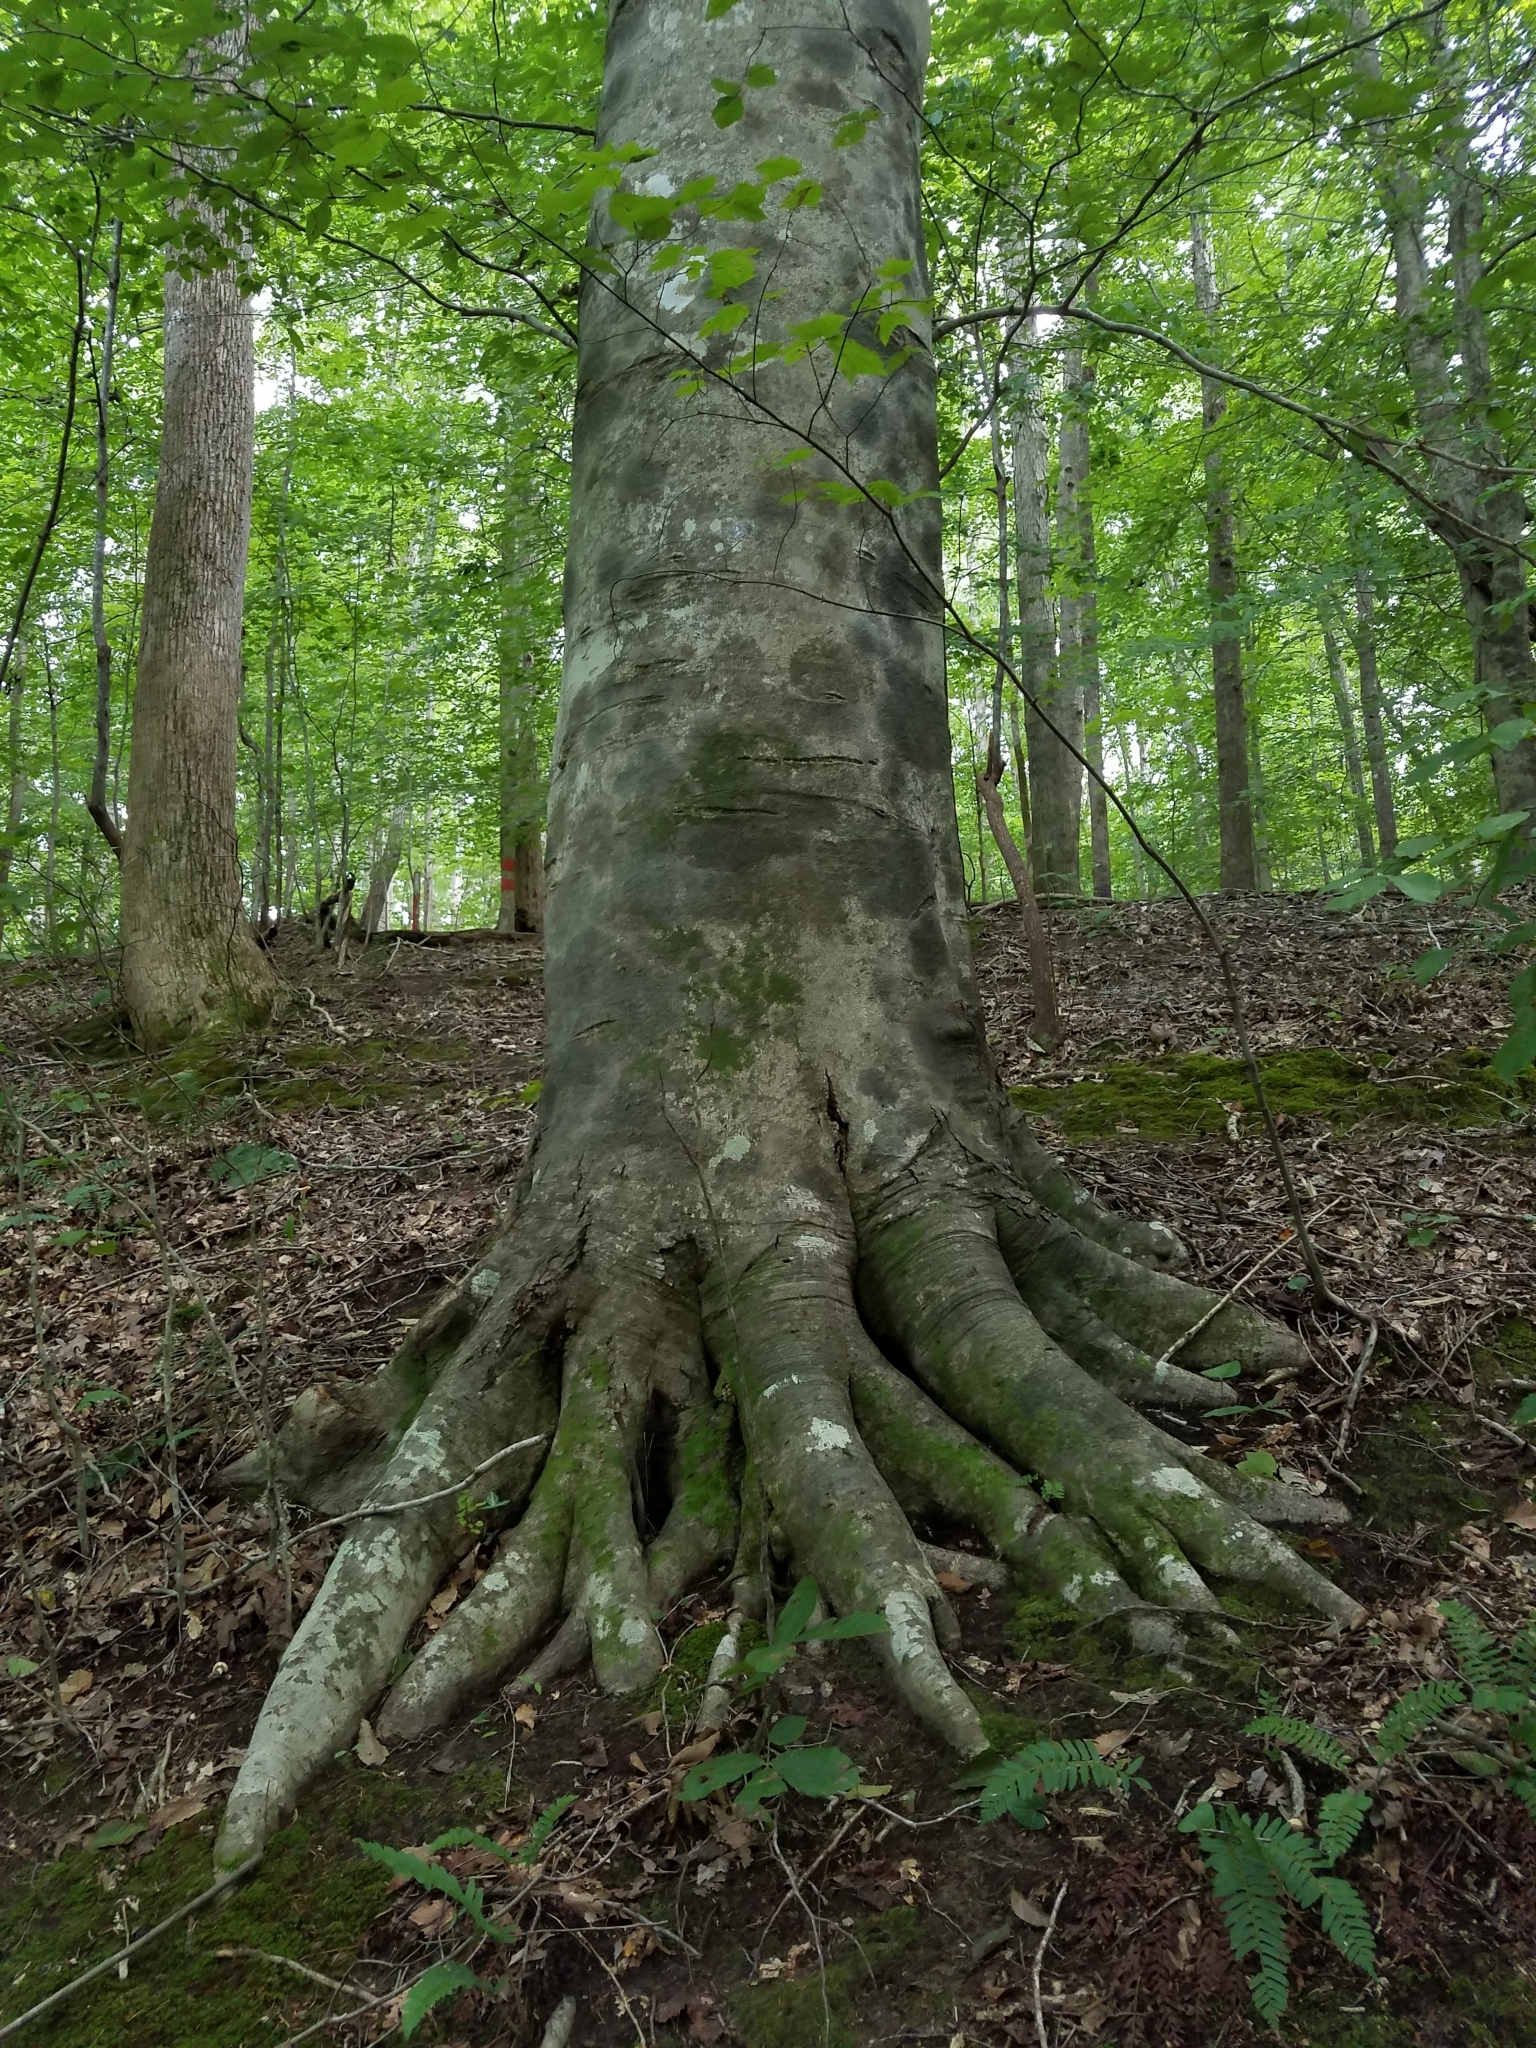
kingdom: Plantae
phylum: Tracheophyta
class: Magnoliopsida
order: Fagales
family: Fagaceae
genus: Fagus
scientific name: Fagus grandifolia
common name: American beech
